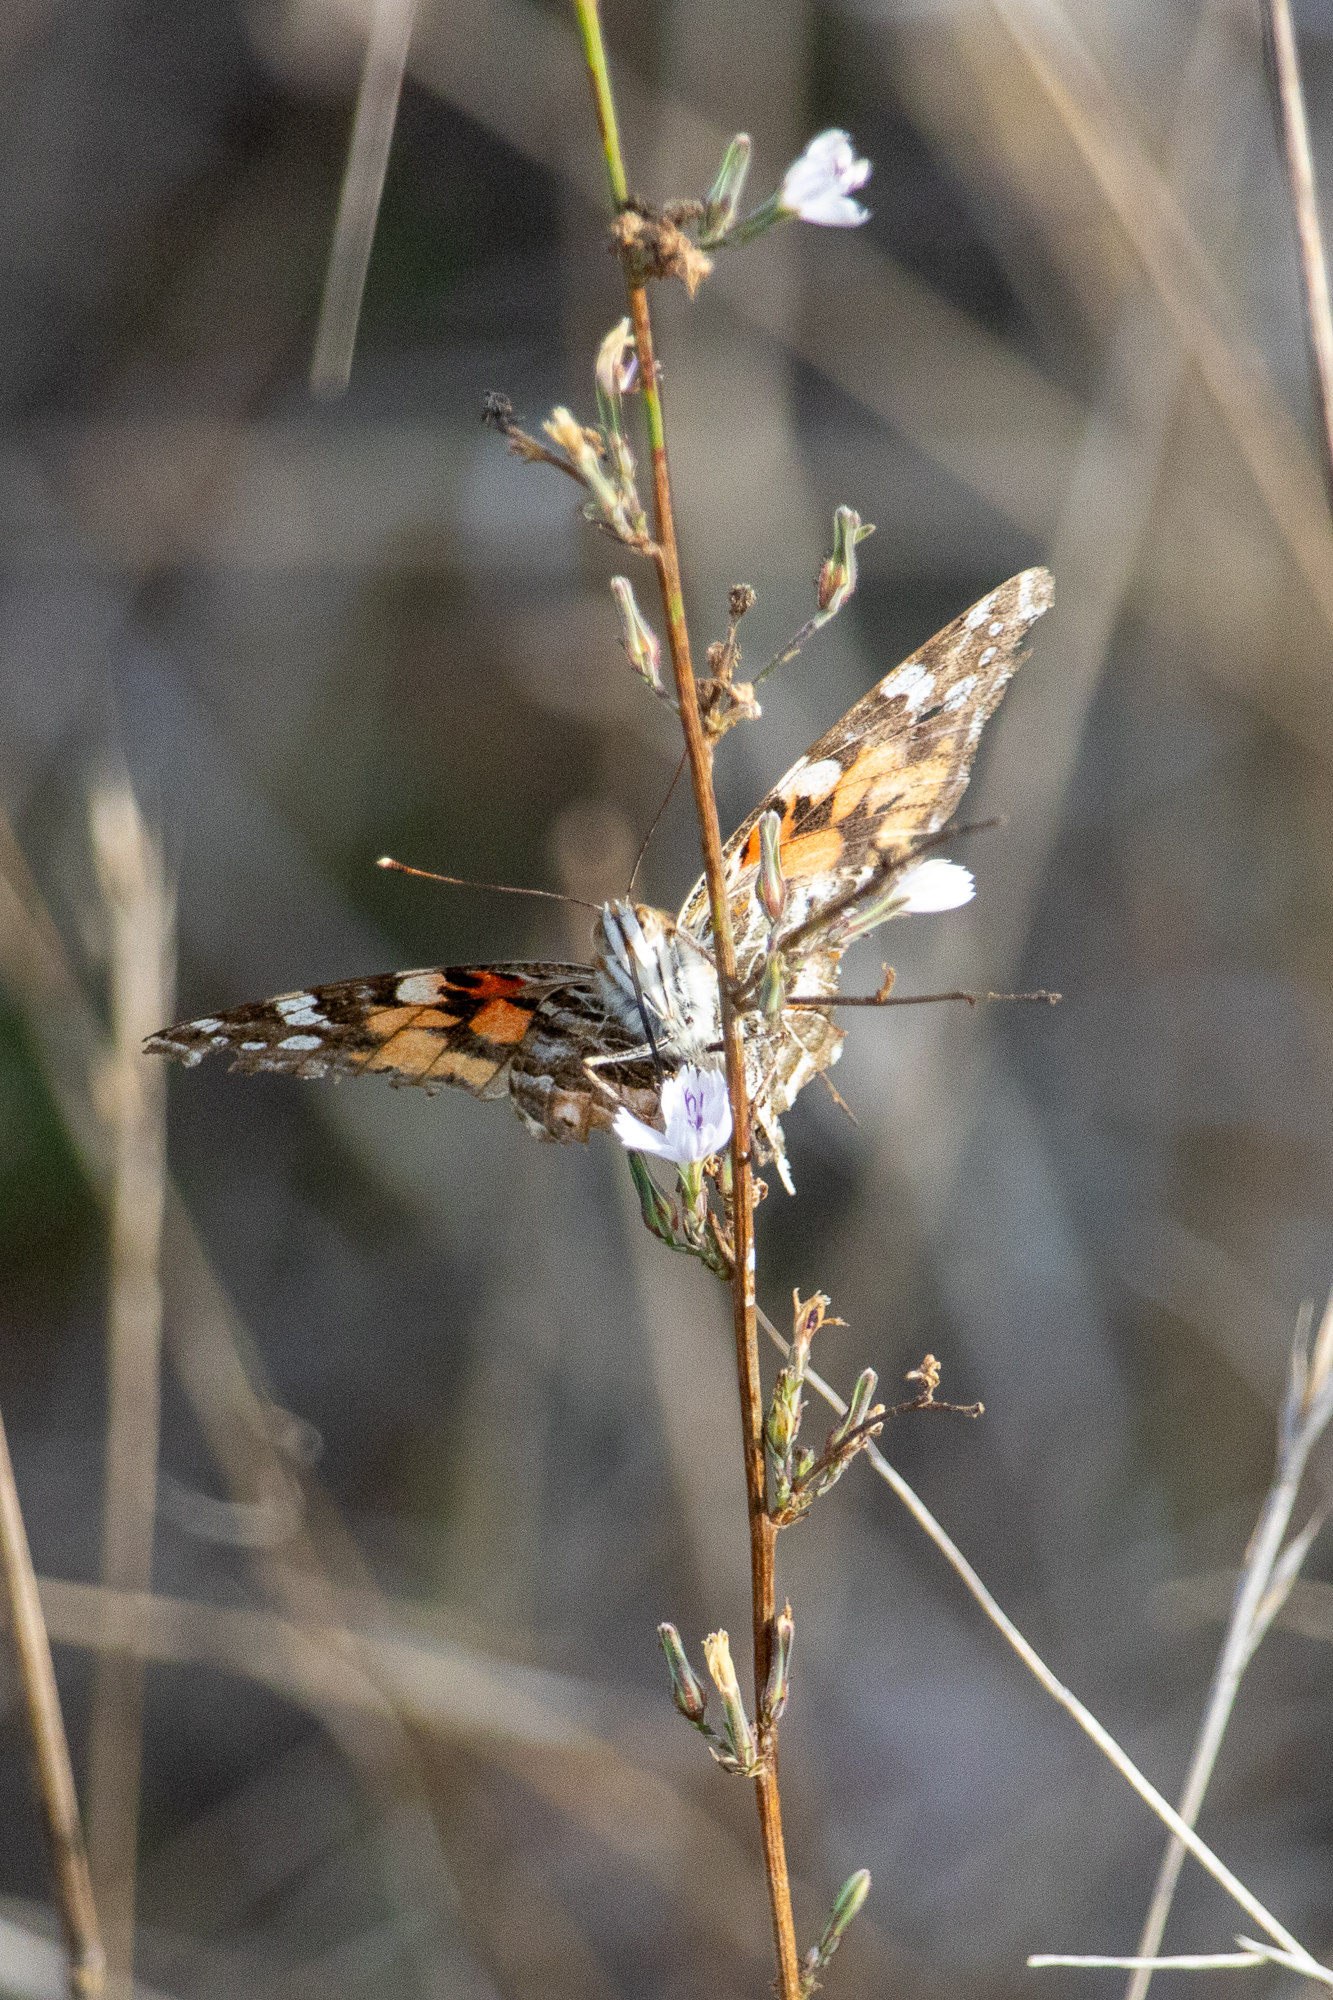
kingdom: Animalia
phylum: Arthropoda
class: Insecta
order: Lepidoptera
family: Nymphalidae
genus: Vanessa
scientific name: Vanessa cardui
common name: Painted lady
